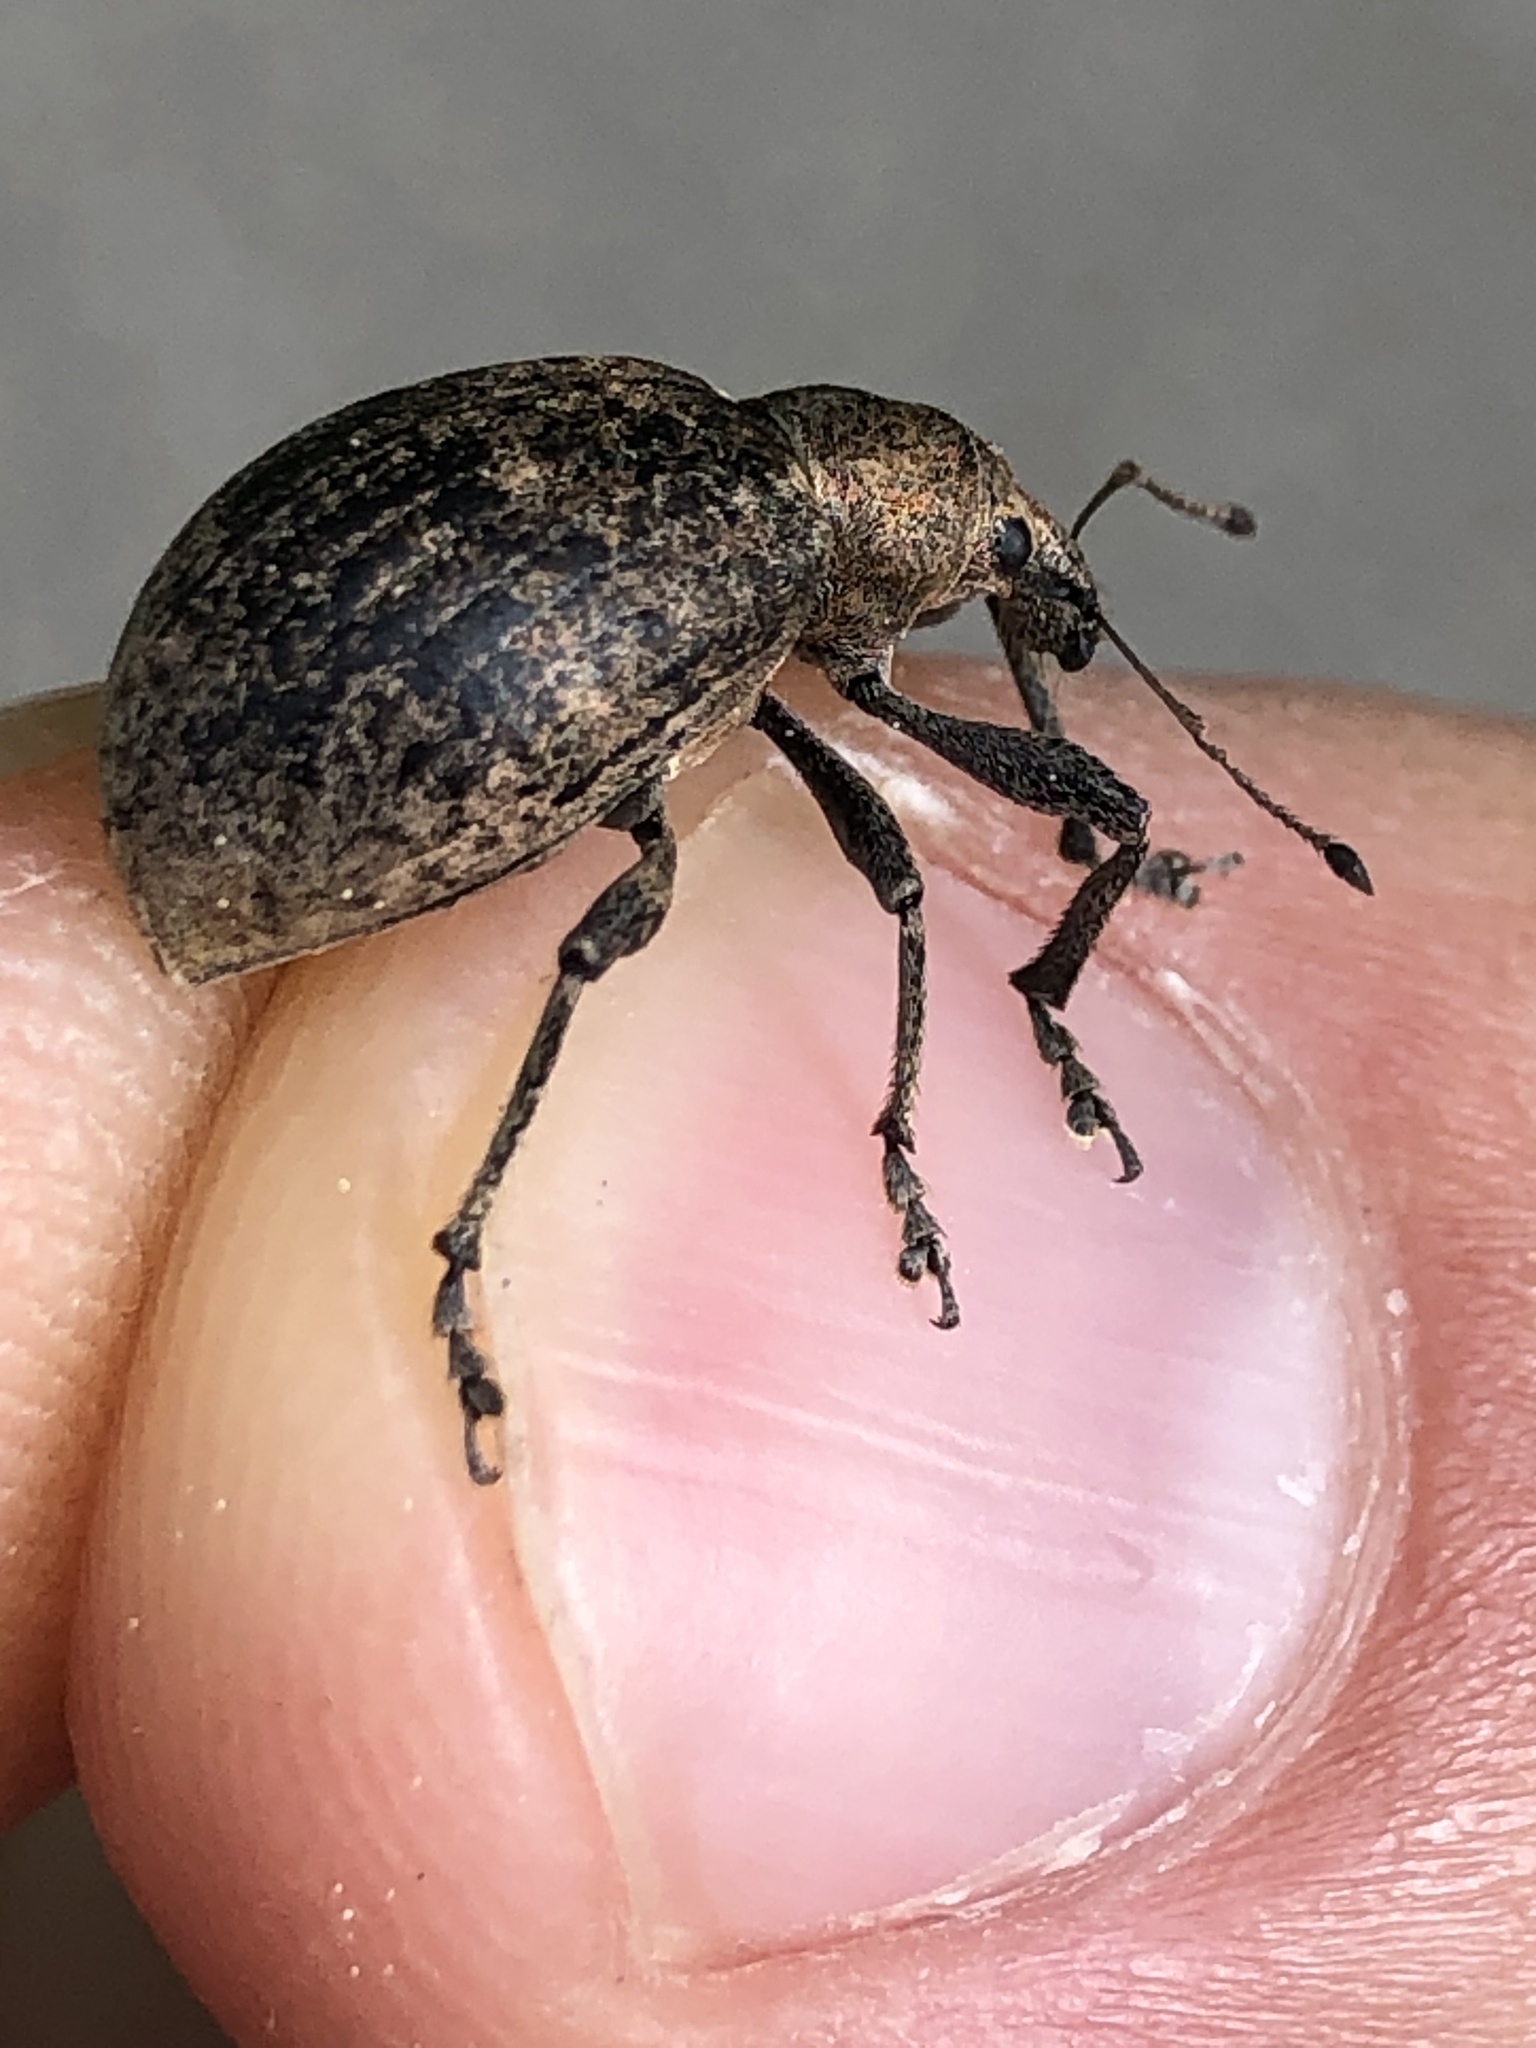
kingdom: Animalia
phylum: Arthropoda
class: Insecta
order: Coleoptera
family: Curculionidae
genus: Liophloeus
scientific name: Liophloeus tessulatus
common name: Weevil
